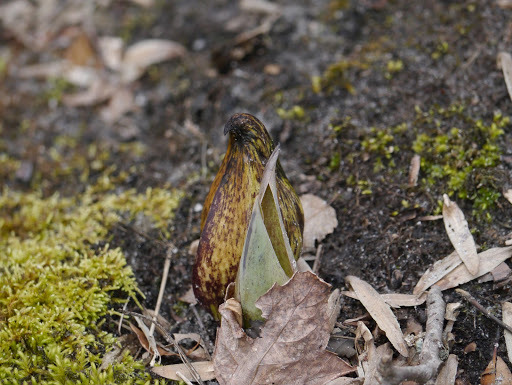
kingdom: Plantae
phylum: Tracheophyta
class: Liliopsida
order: Alismatales
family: Araceae
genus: Symplocarpus
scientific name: Symplocarpus foetidus
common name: Eastern skunk cabbage
